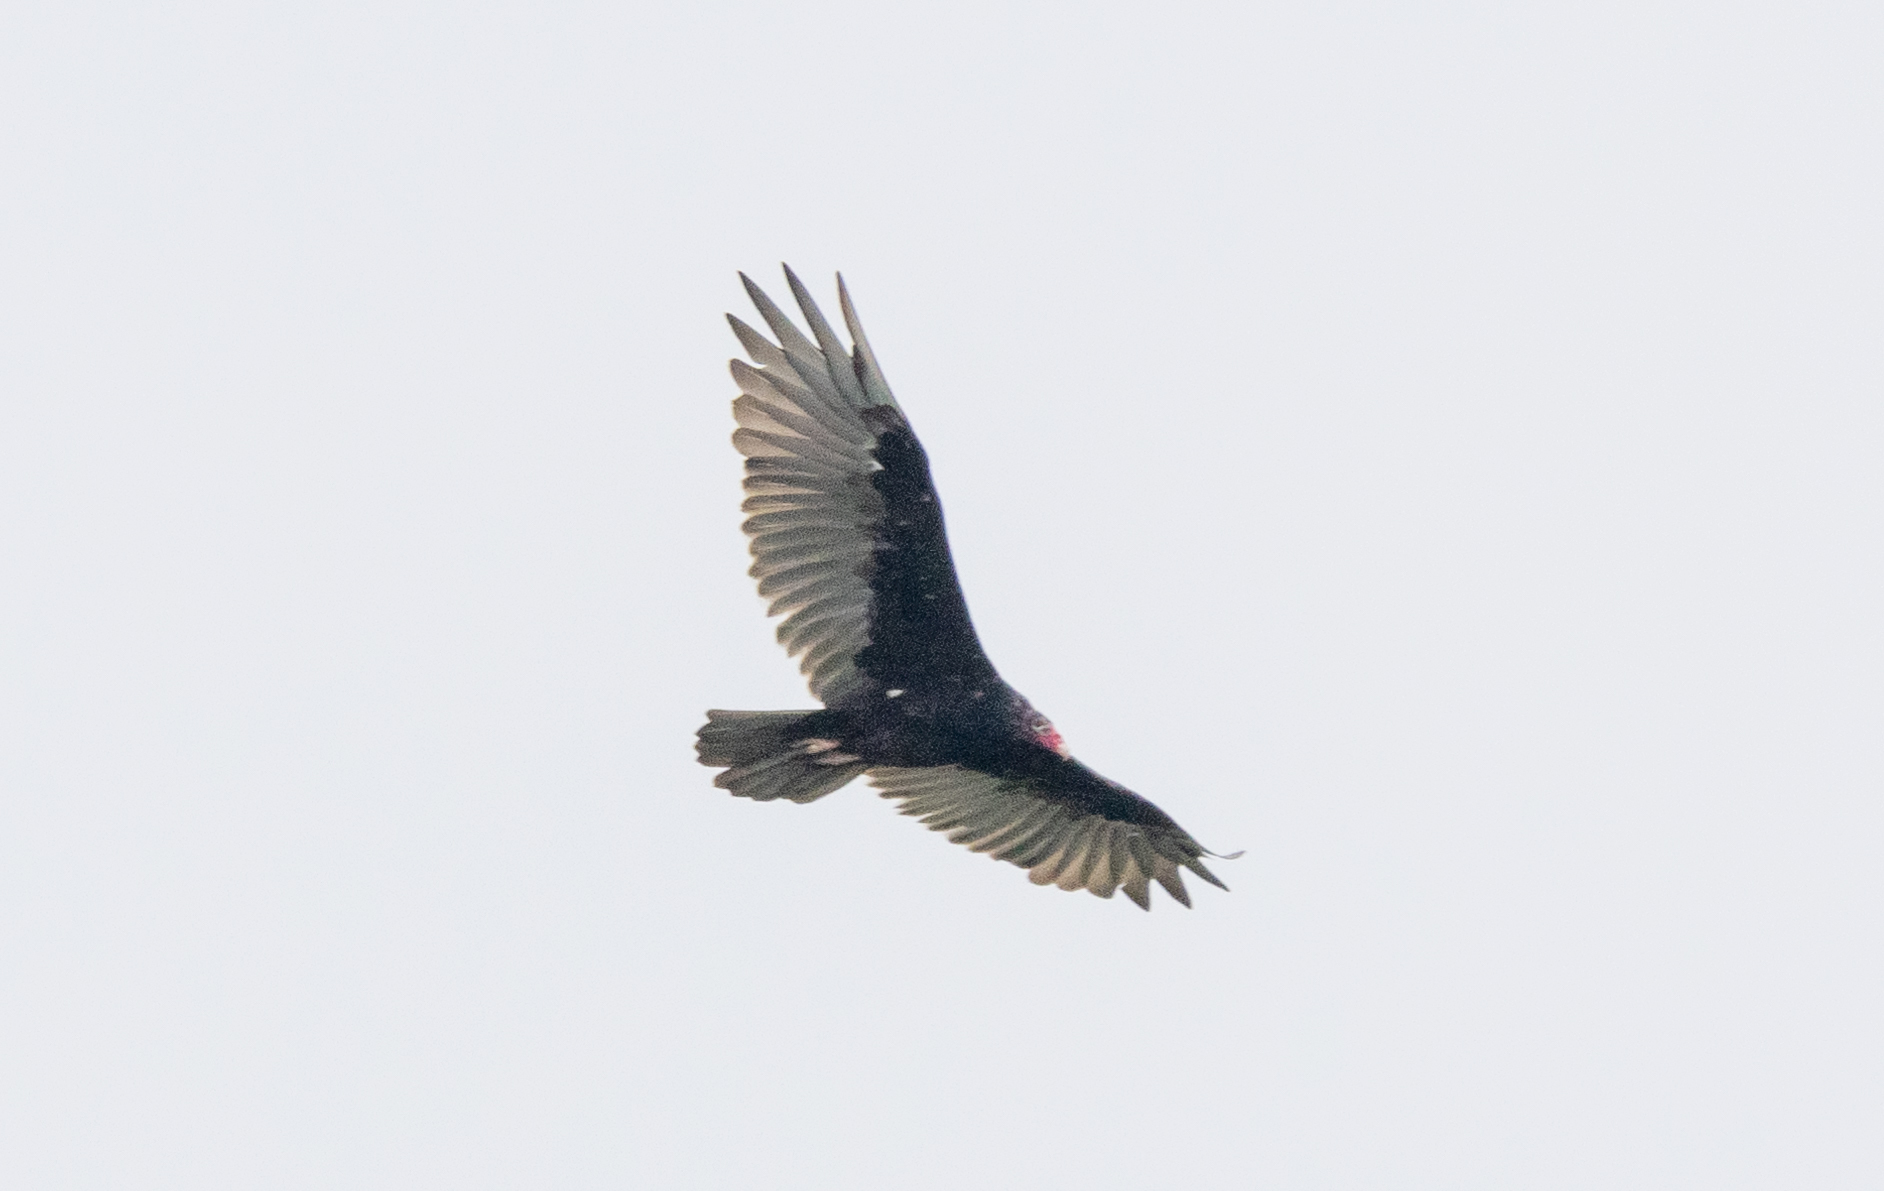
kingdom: Animalia
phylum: Chordata
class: Aves
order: Accipitriformes
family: Cathartidae
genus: Cathartes
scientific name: Cathartes aura
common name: Turkey vulture
